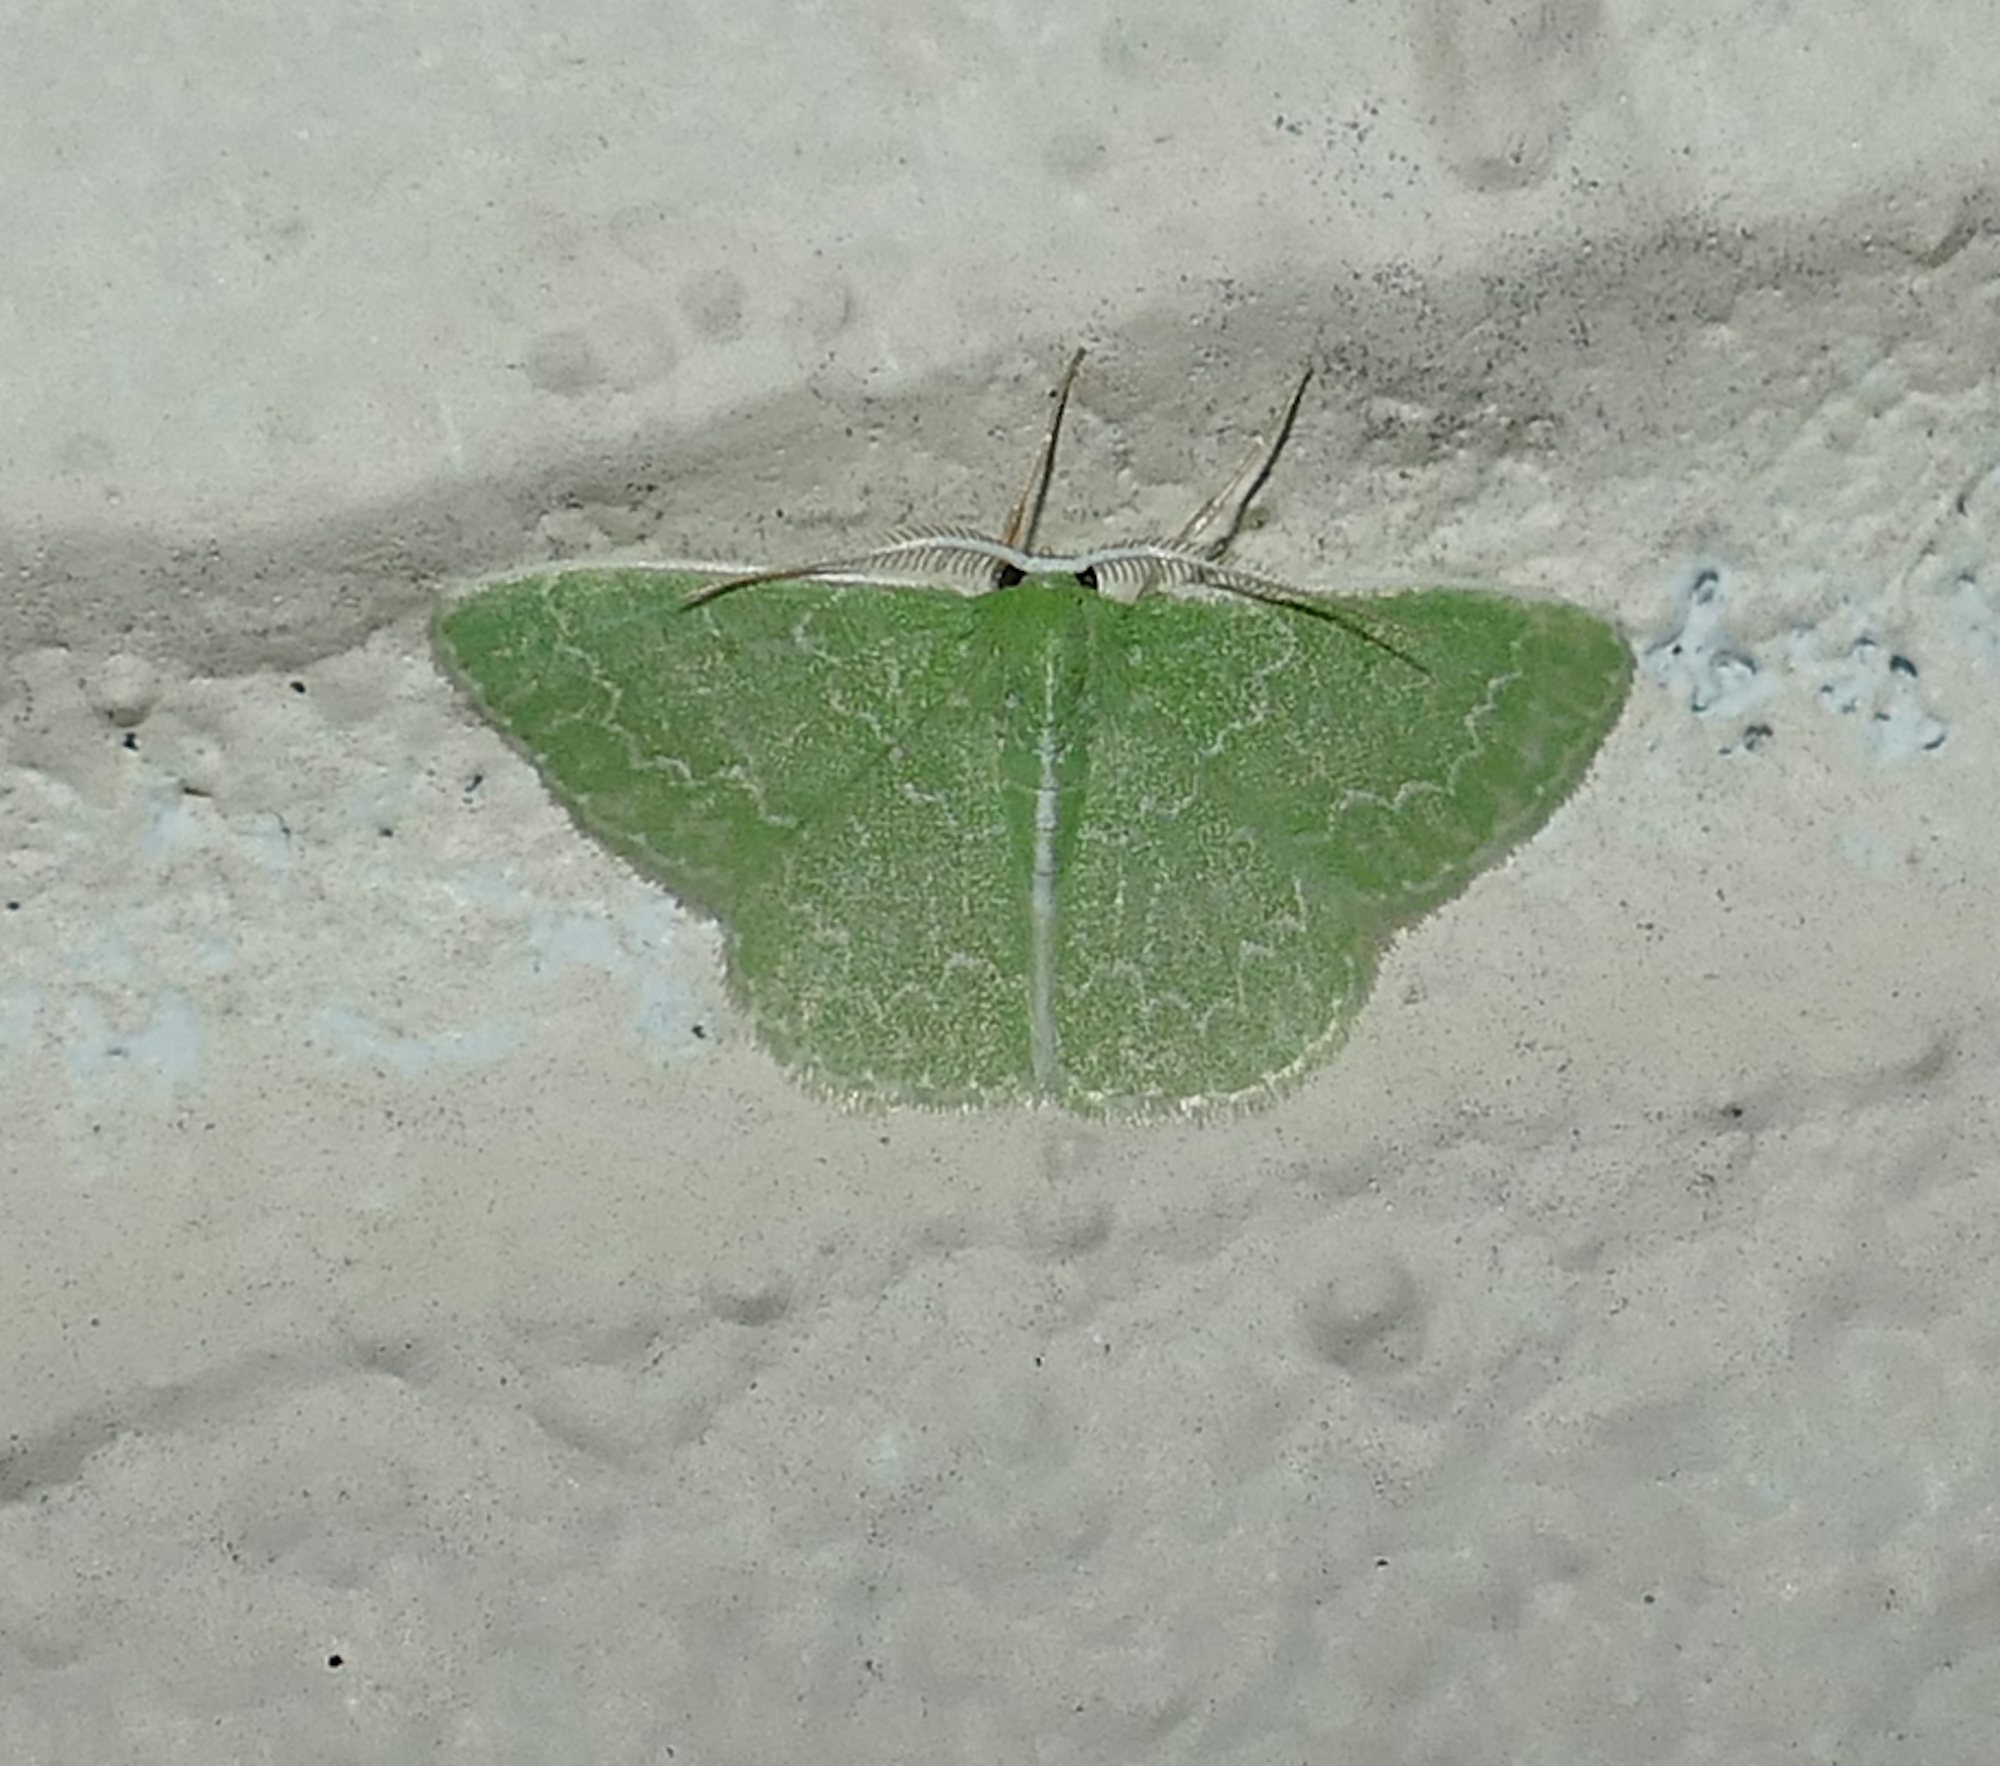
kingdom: Animalia
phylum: Arthropoda
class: Insecta
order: Lepidoptera
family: Geometridae
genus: Synchlora
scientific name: Synchlora frondaria
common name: Southern emerald
